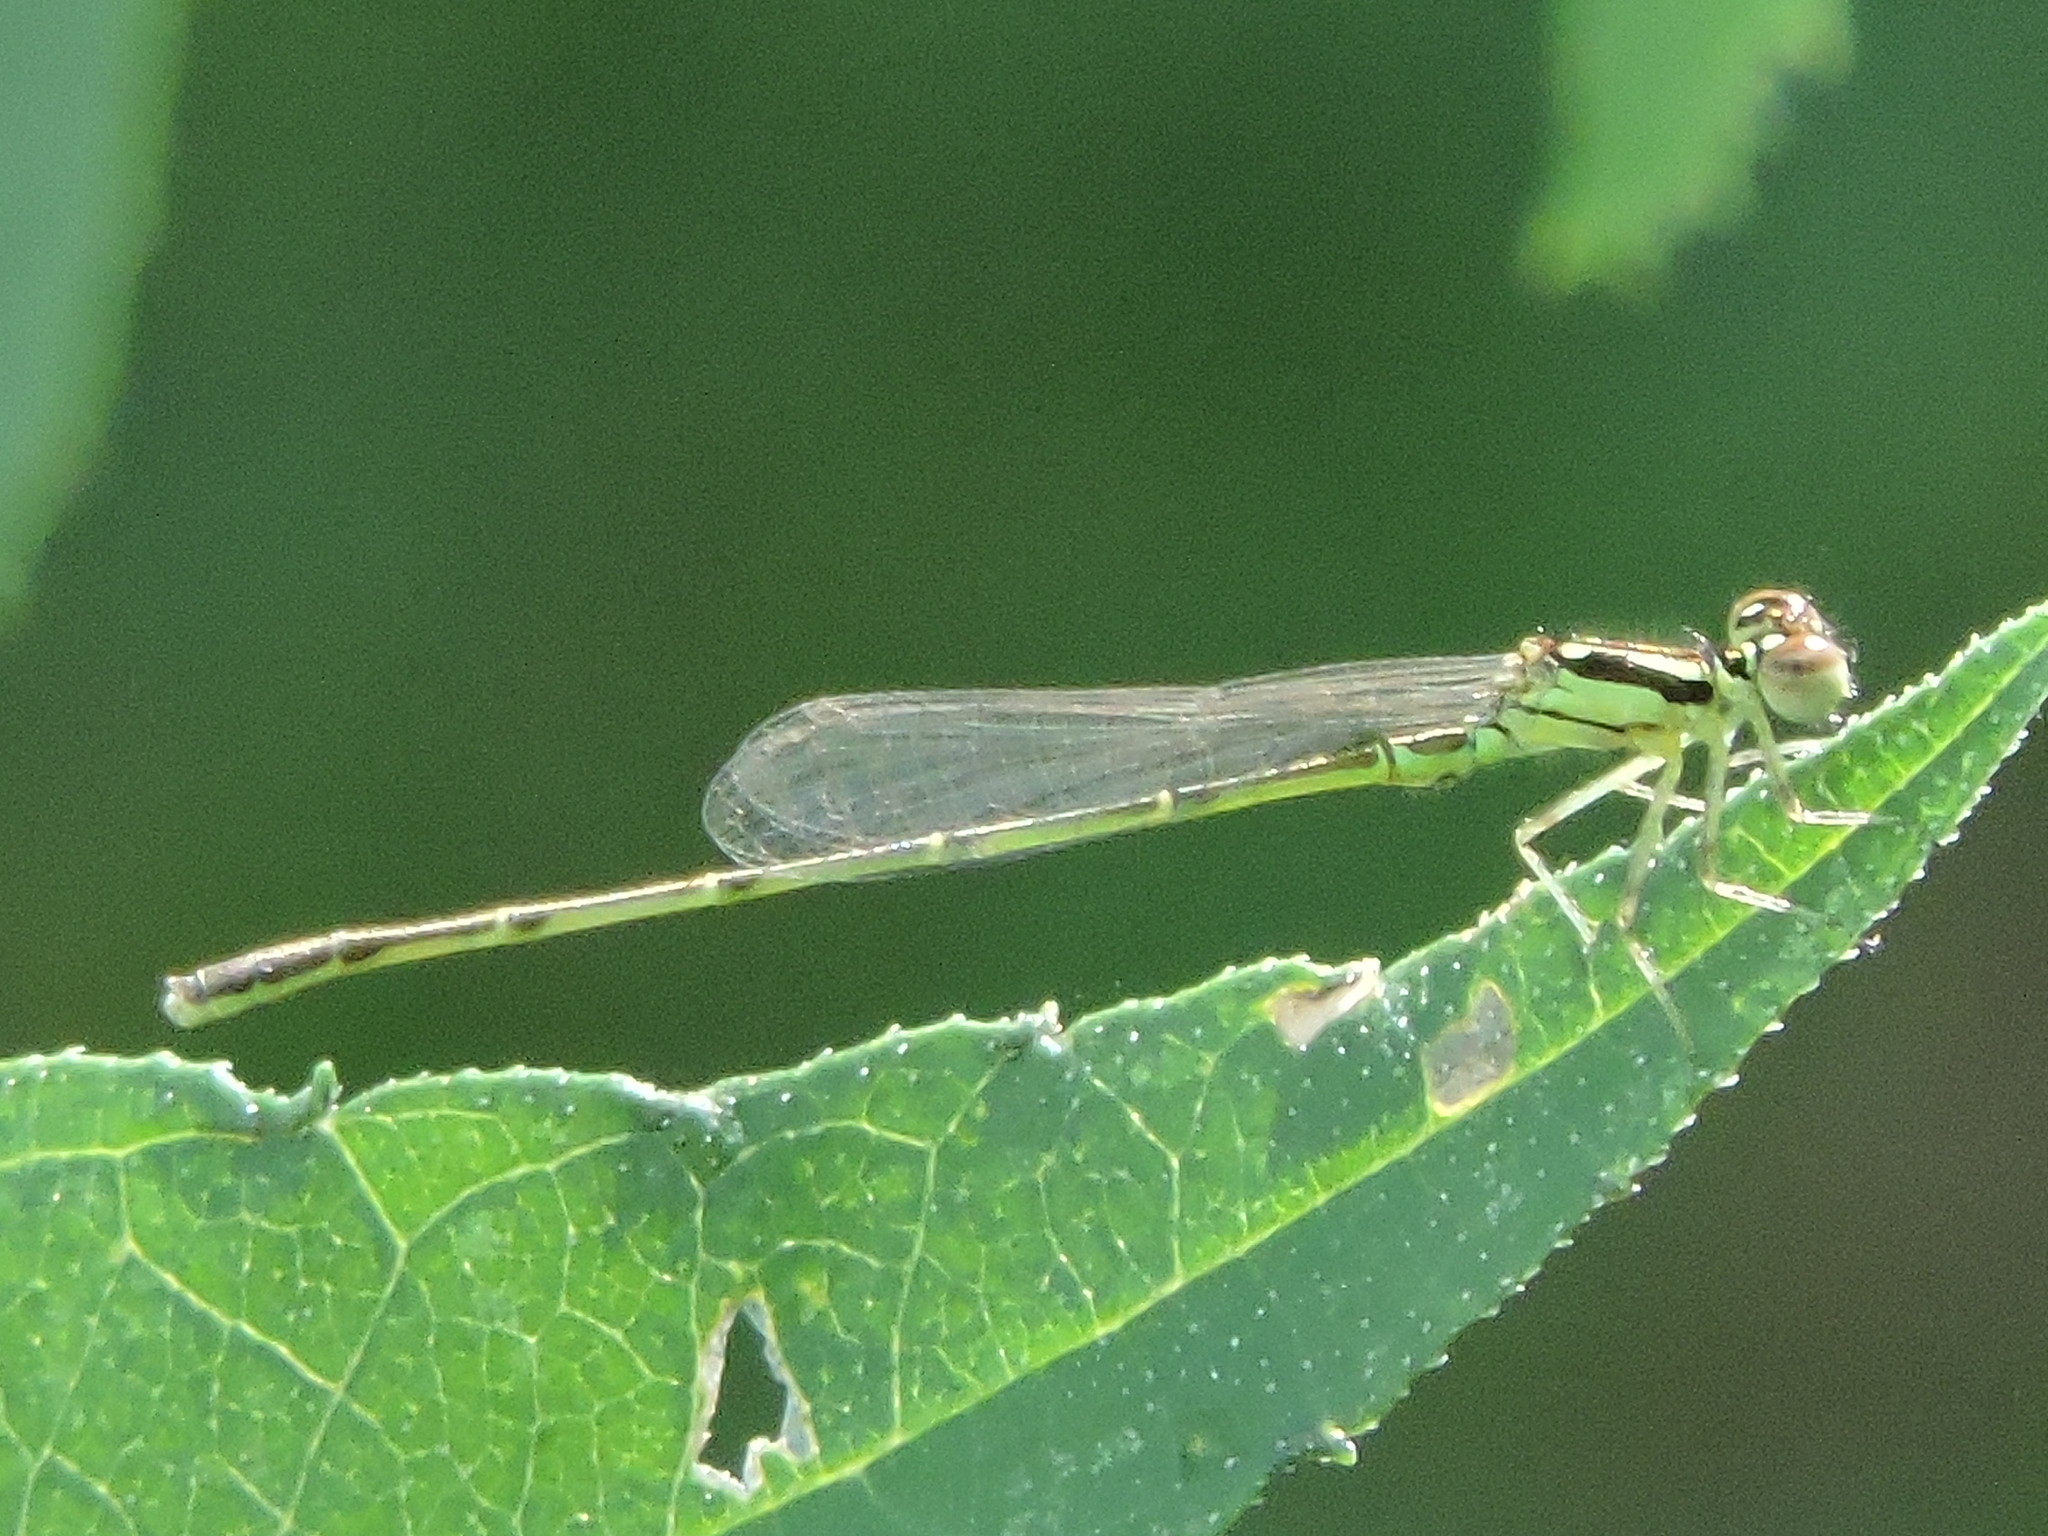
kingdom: Animalia
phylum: Arthropoda
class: Insecta
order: Odonata
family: Coenagrionidae
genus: Ischnura
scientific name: Ischnura posita
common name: Fragile forktail
